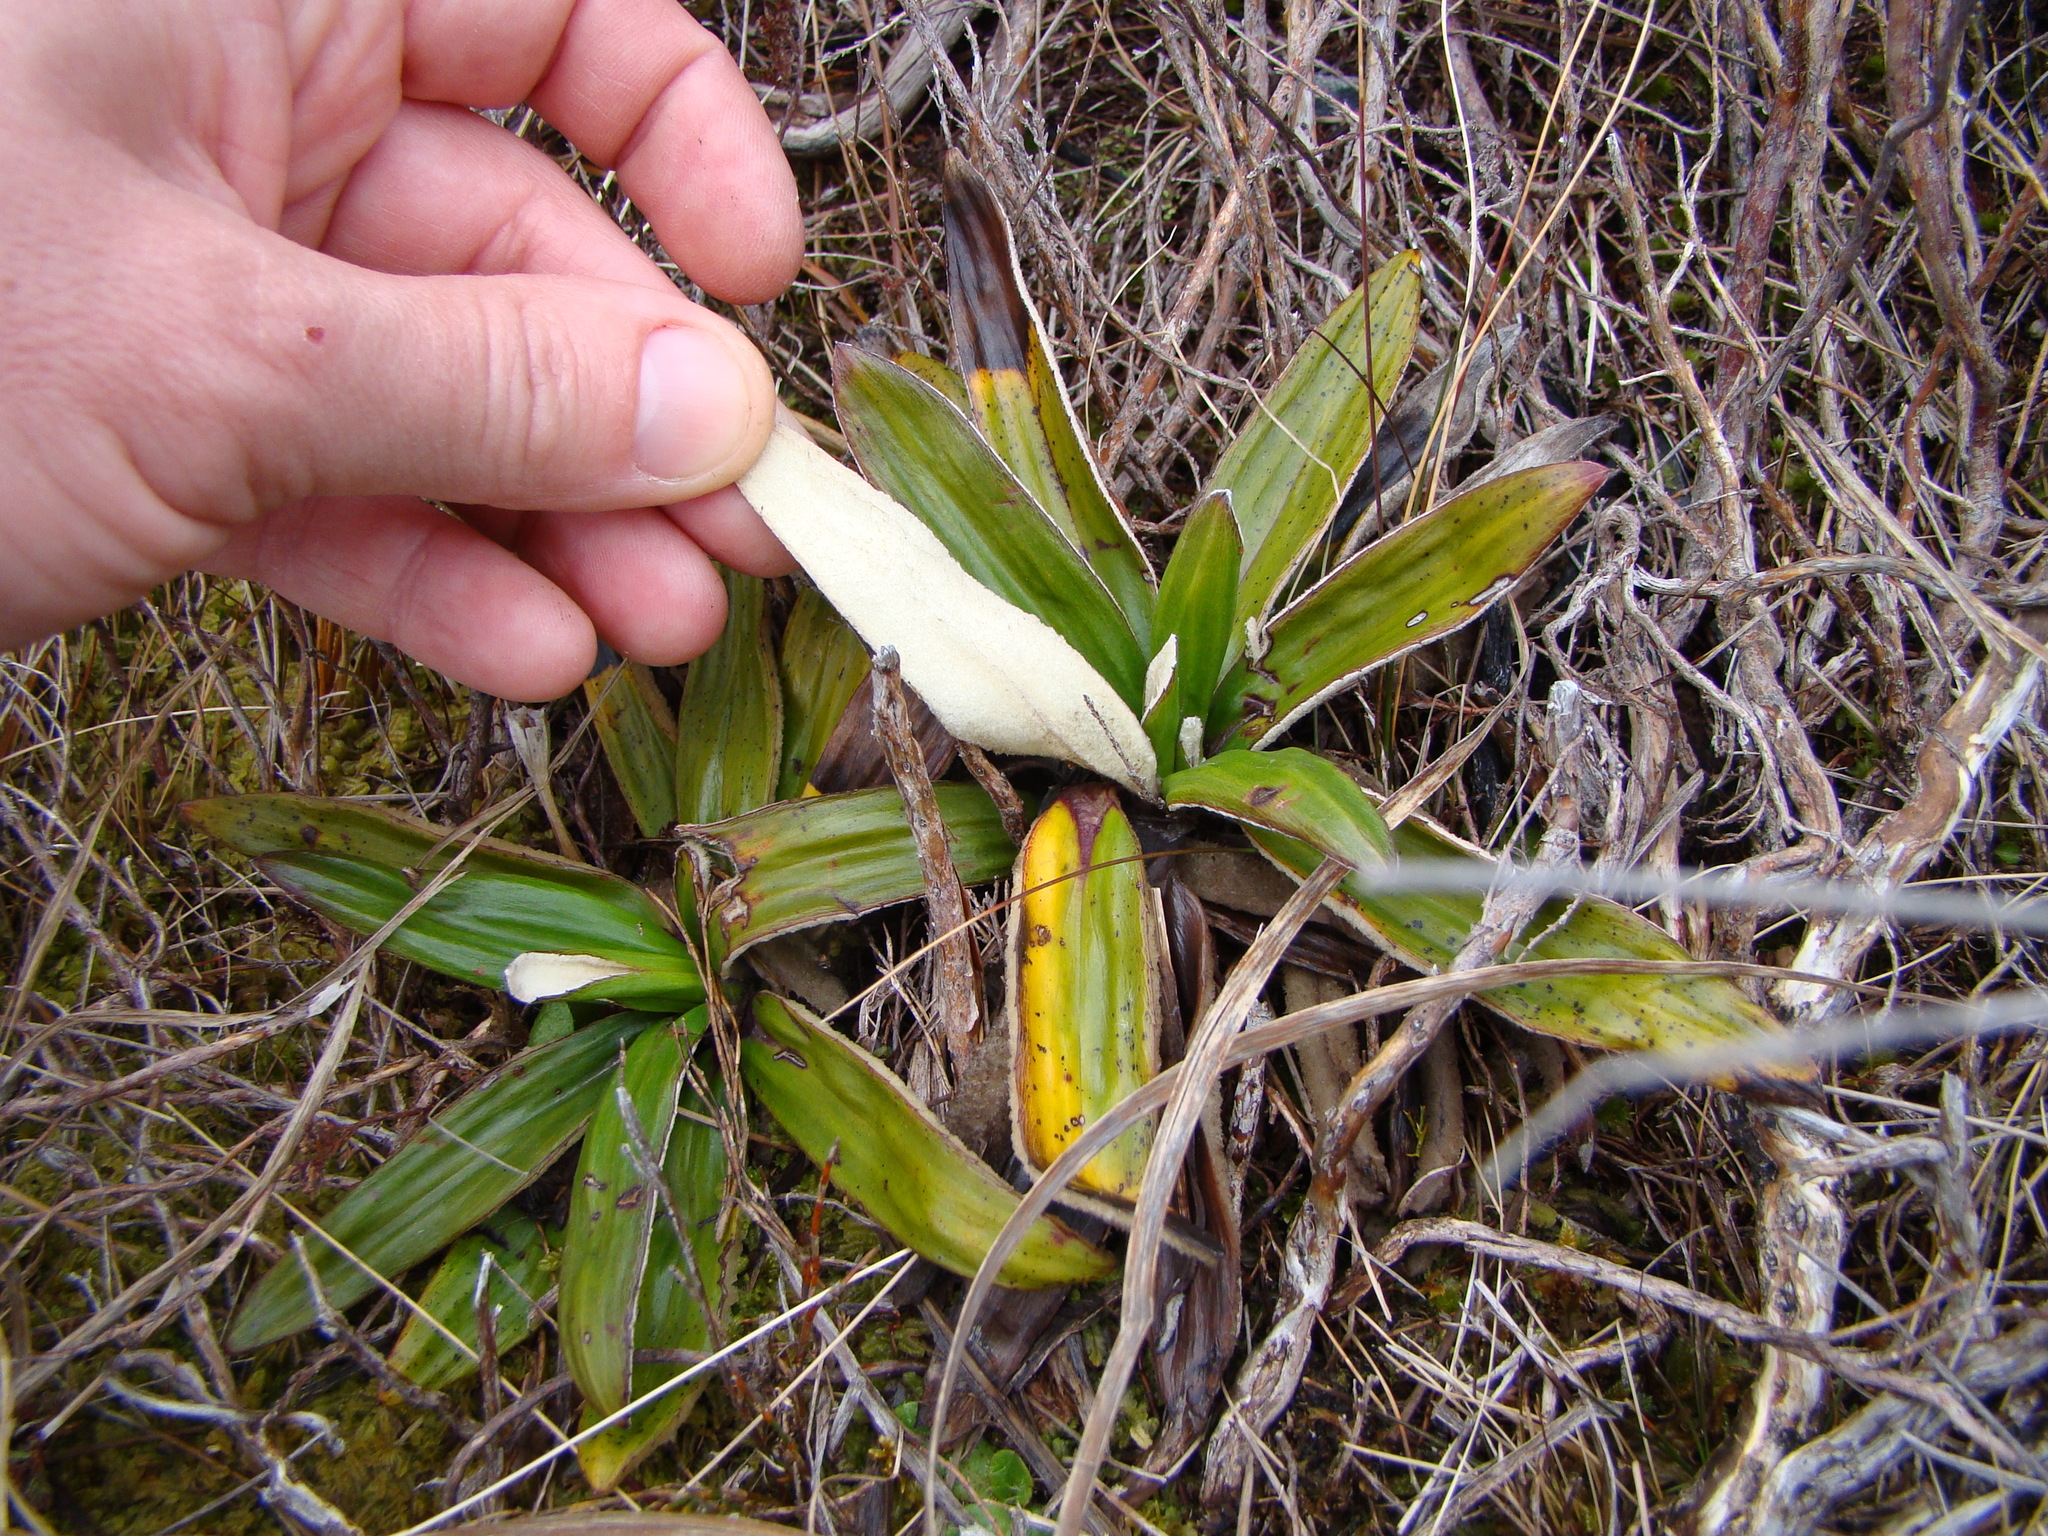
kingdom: Plantae
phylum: Tracheophyta
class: Magnoliopsida
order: Asterales
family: Asteraceae
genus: Celmisia
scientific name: Celmisia spectabilis
